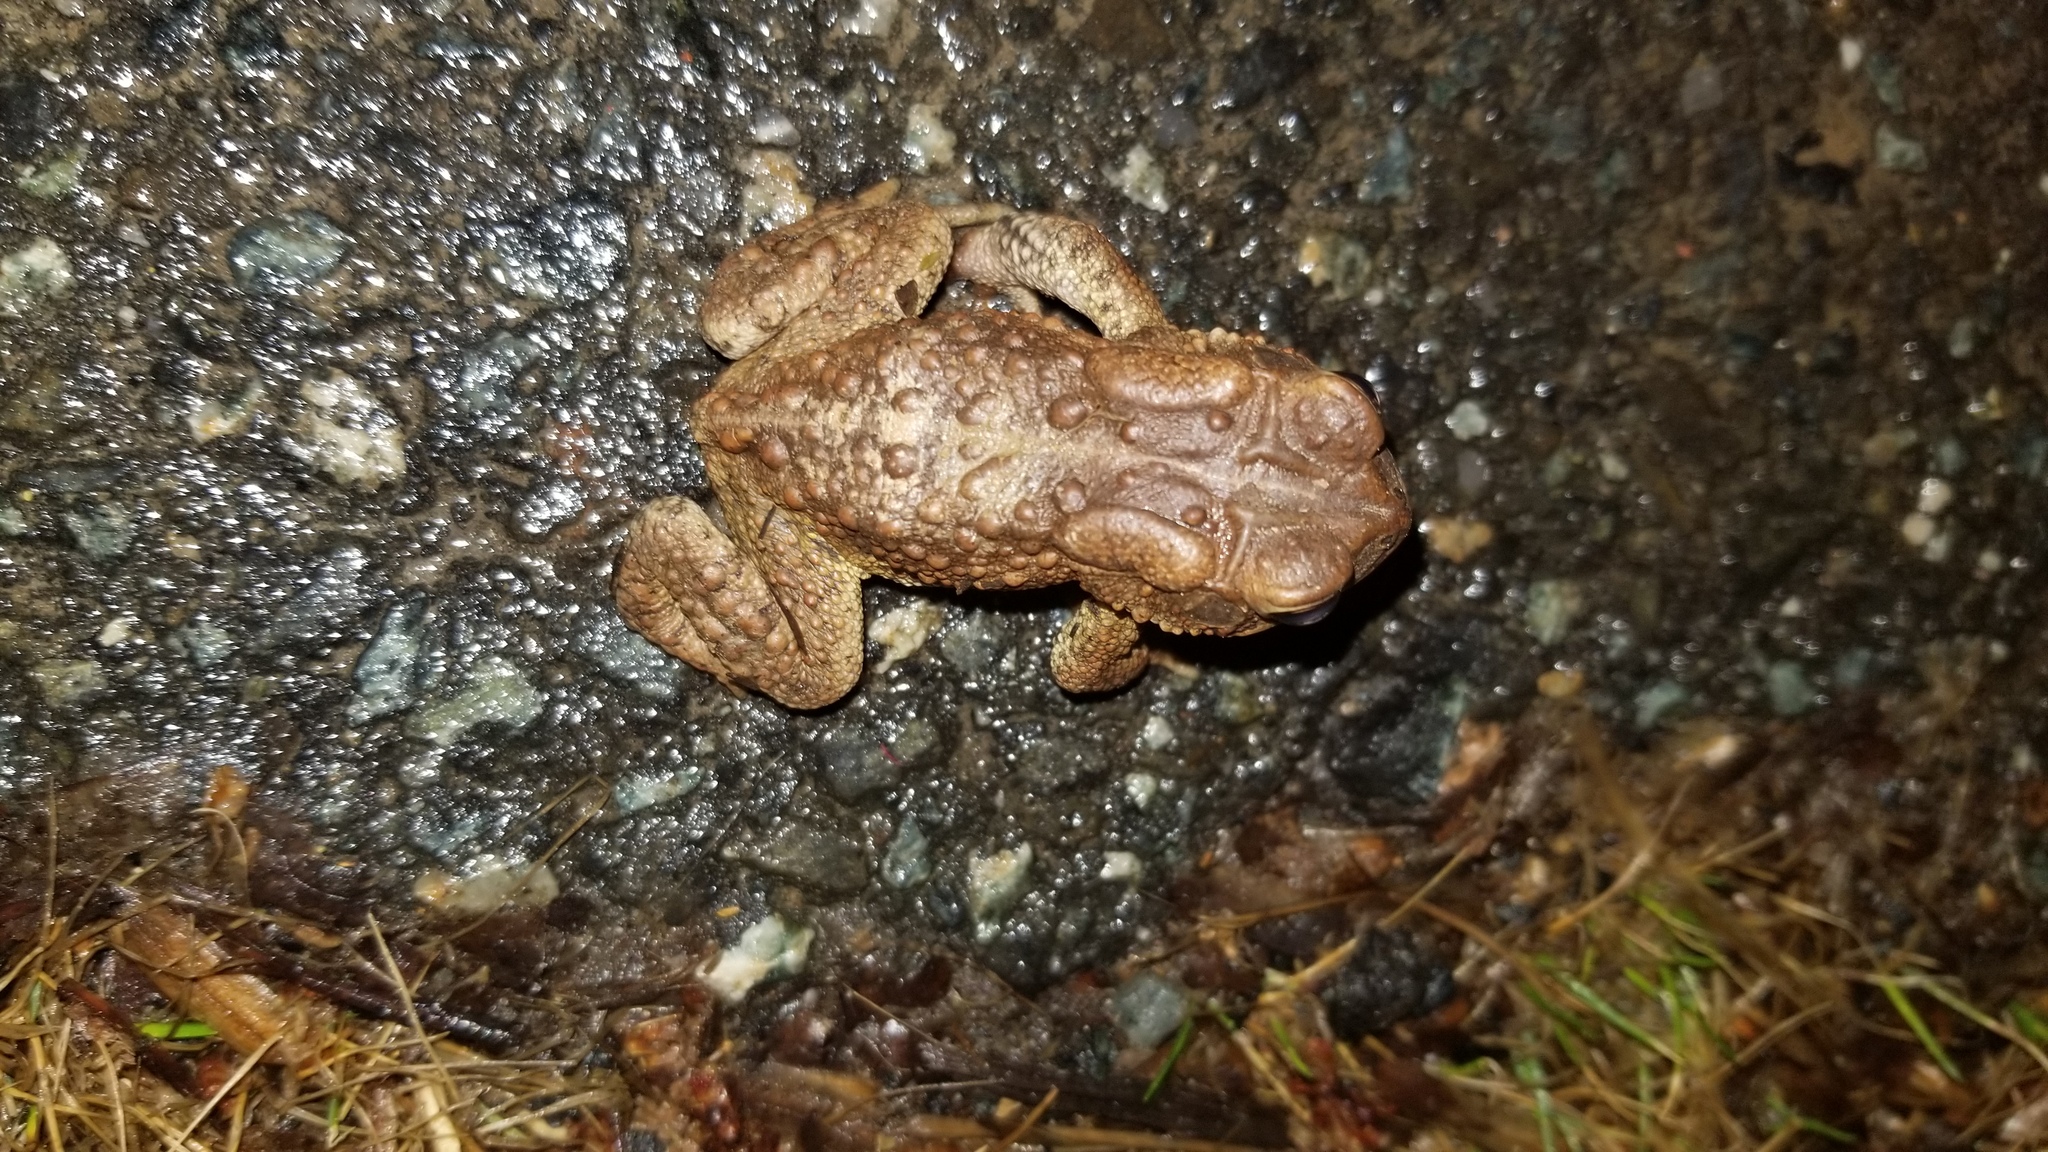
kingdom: Animalia
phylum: Chordata
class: Amphibia
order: Anura
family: Bufonidae
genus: Anaxyrus
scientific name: Anaxyrus americanus
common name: American toad
